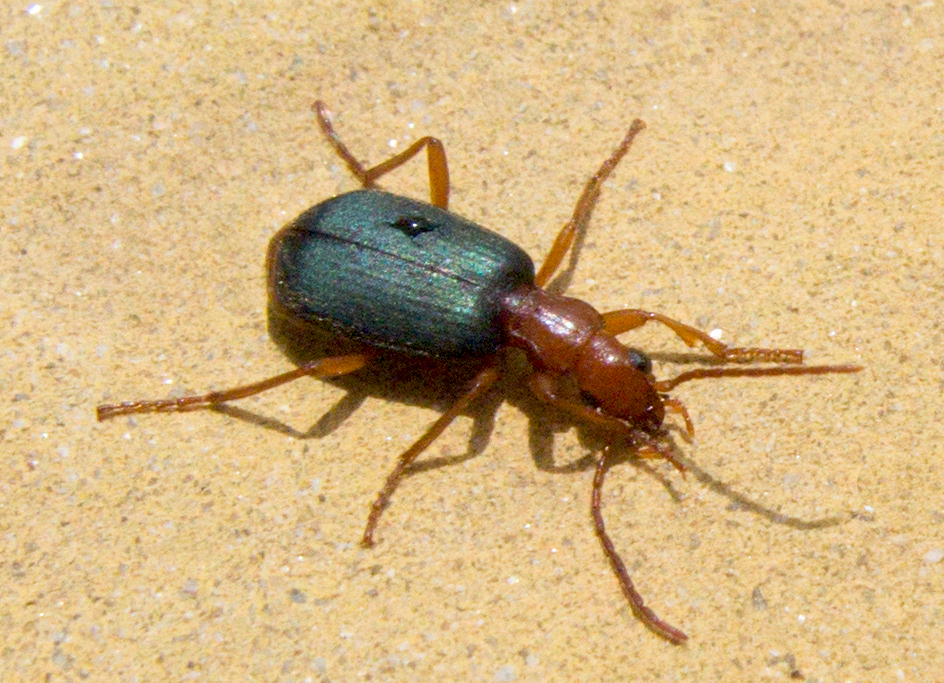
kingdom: Animalia
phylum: Arthropoda
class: Insecta
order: Coleoptera
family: Carabidae
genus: Brachinus
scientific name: Brachinus explodens
